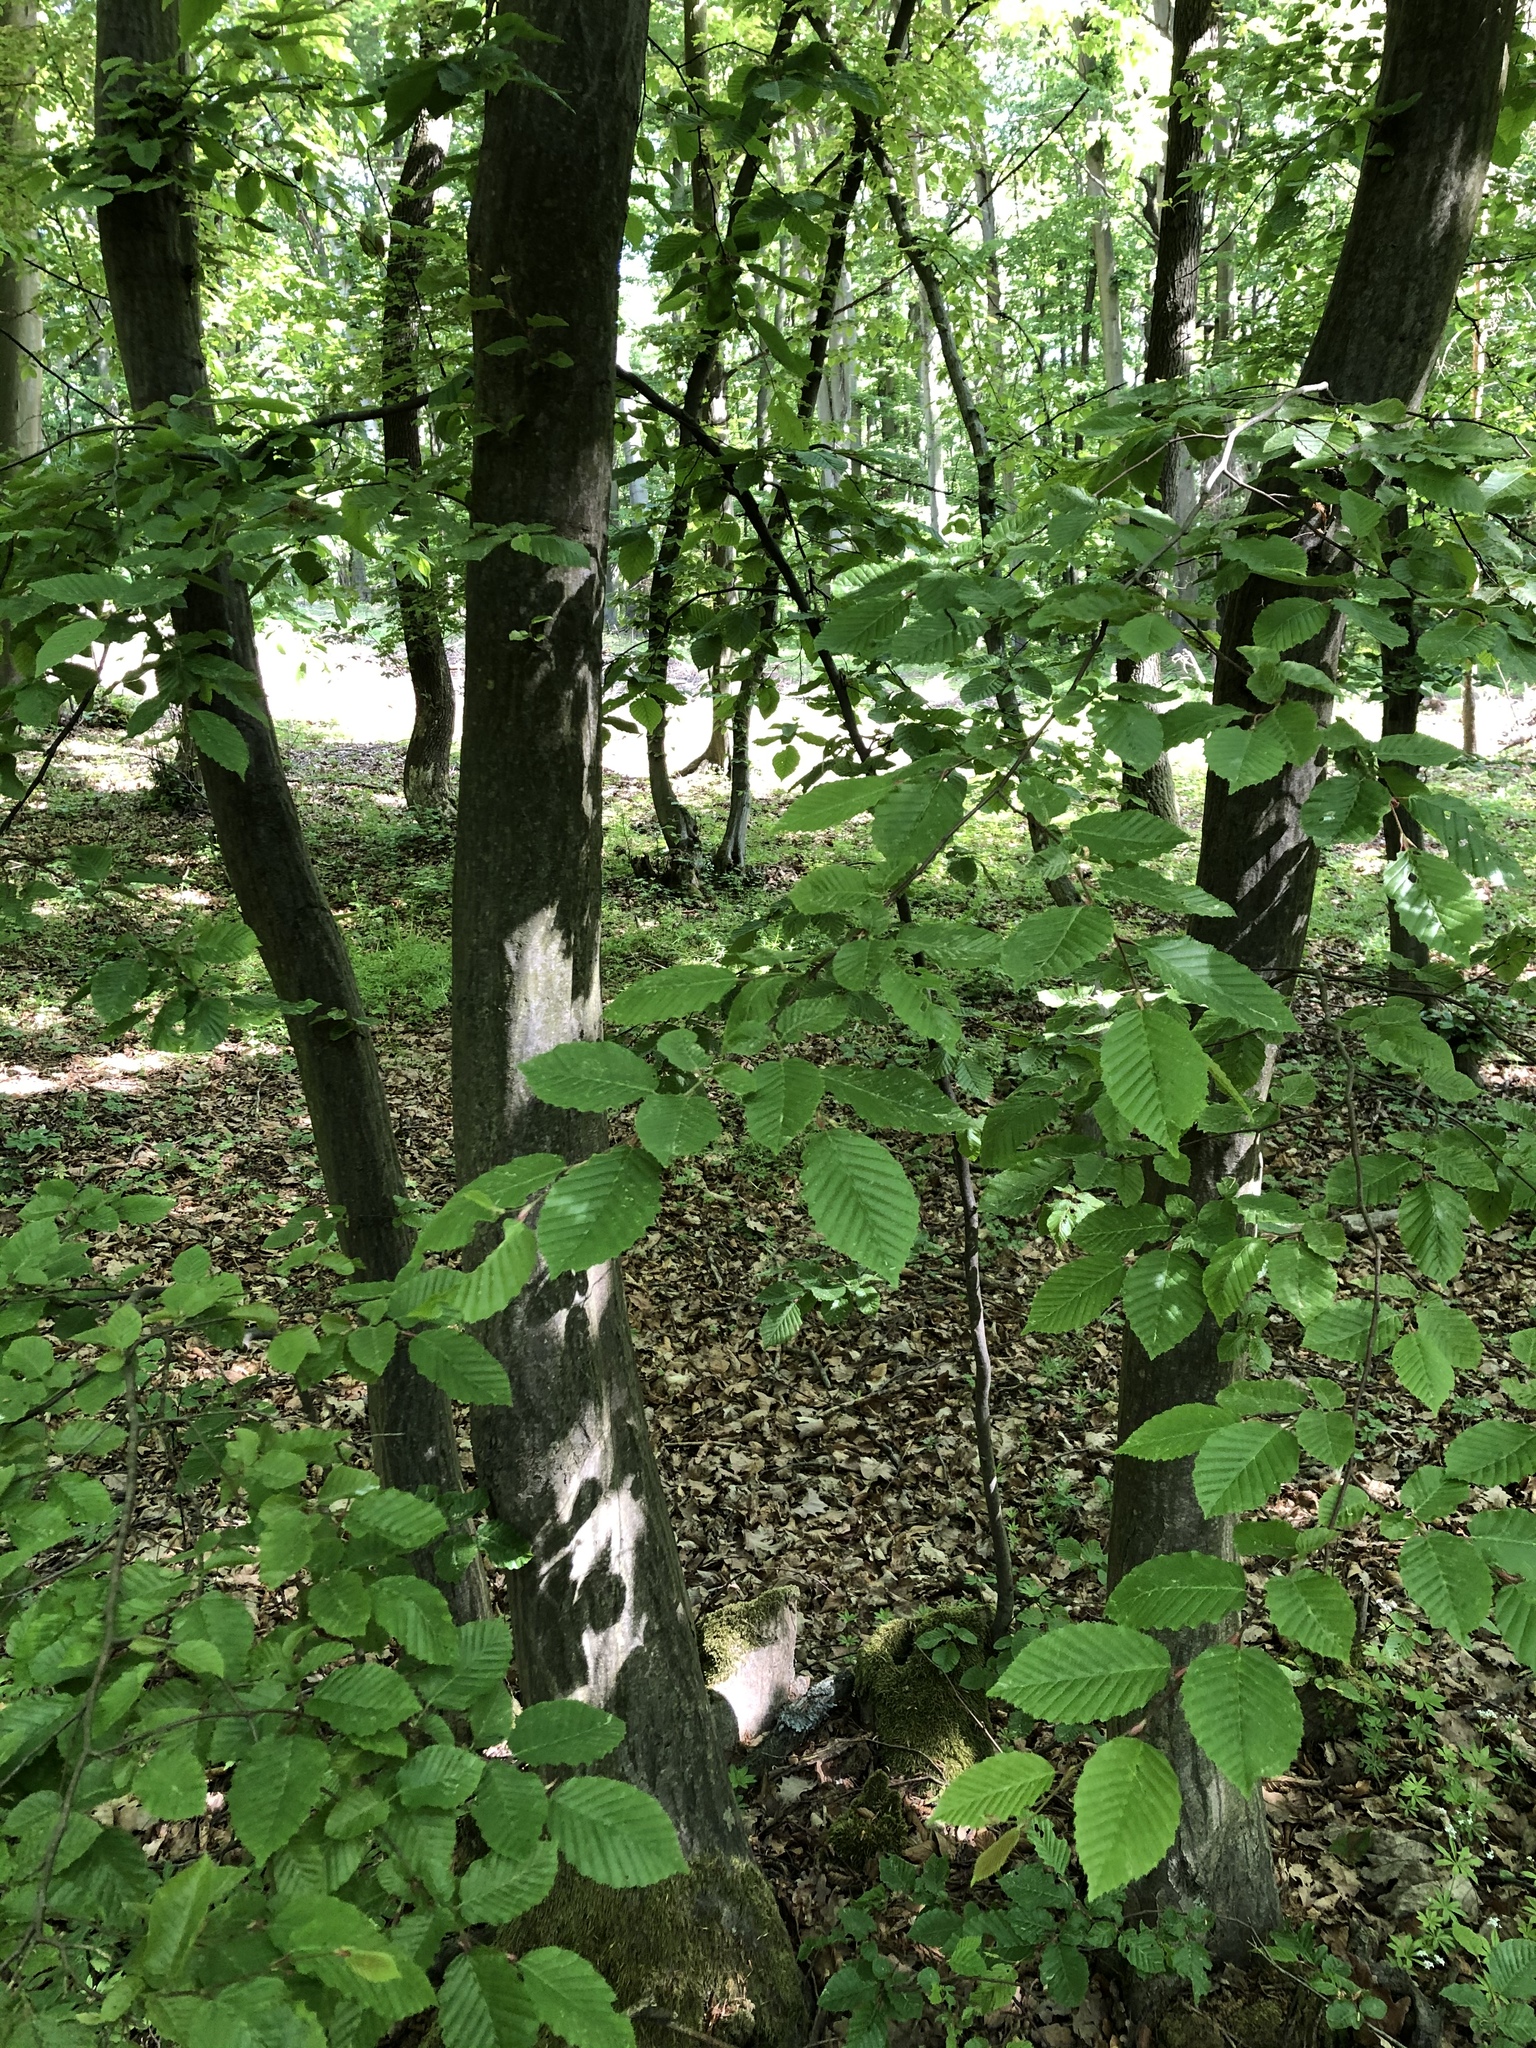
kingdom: Plantae
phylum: Tracheophyta
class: Magnoliopsida
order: Fagales
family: Betulaceae
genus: Carpinus
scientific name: Carpinus betulus
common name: Hornbeam
